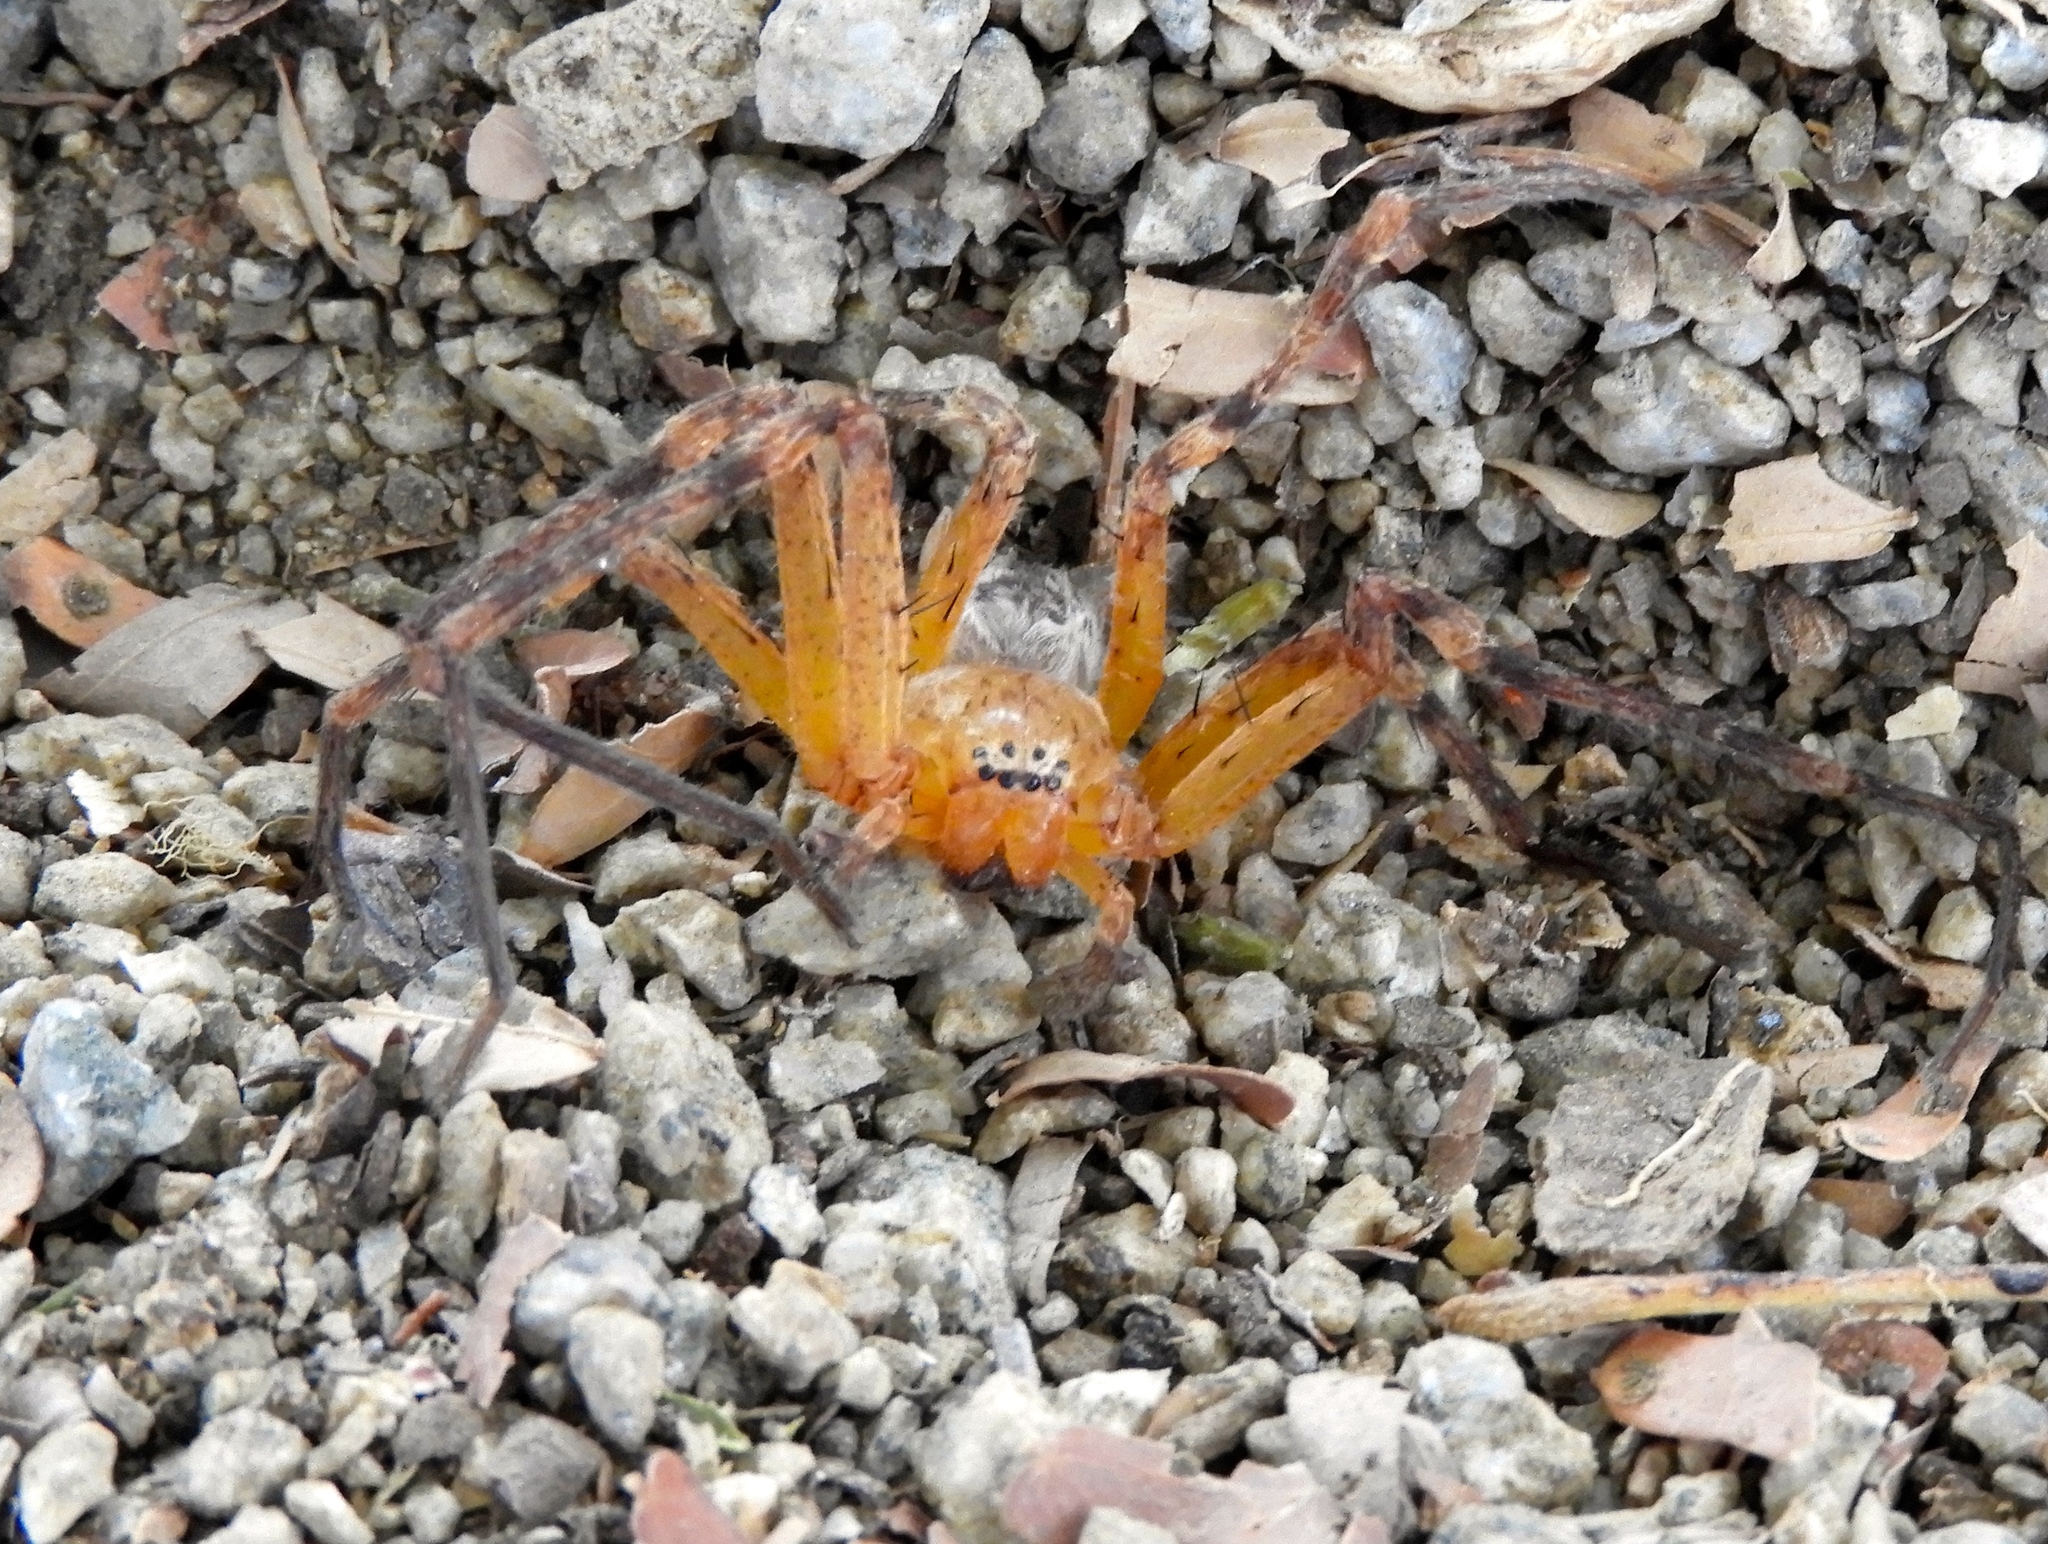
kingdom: Animalia
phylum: Arthropoda
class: Arachnida
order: Araneae
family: Sparassidae
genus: Curicaberis
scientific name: Curicaberis culiacan
